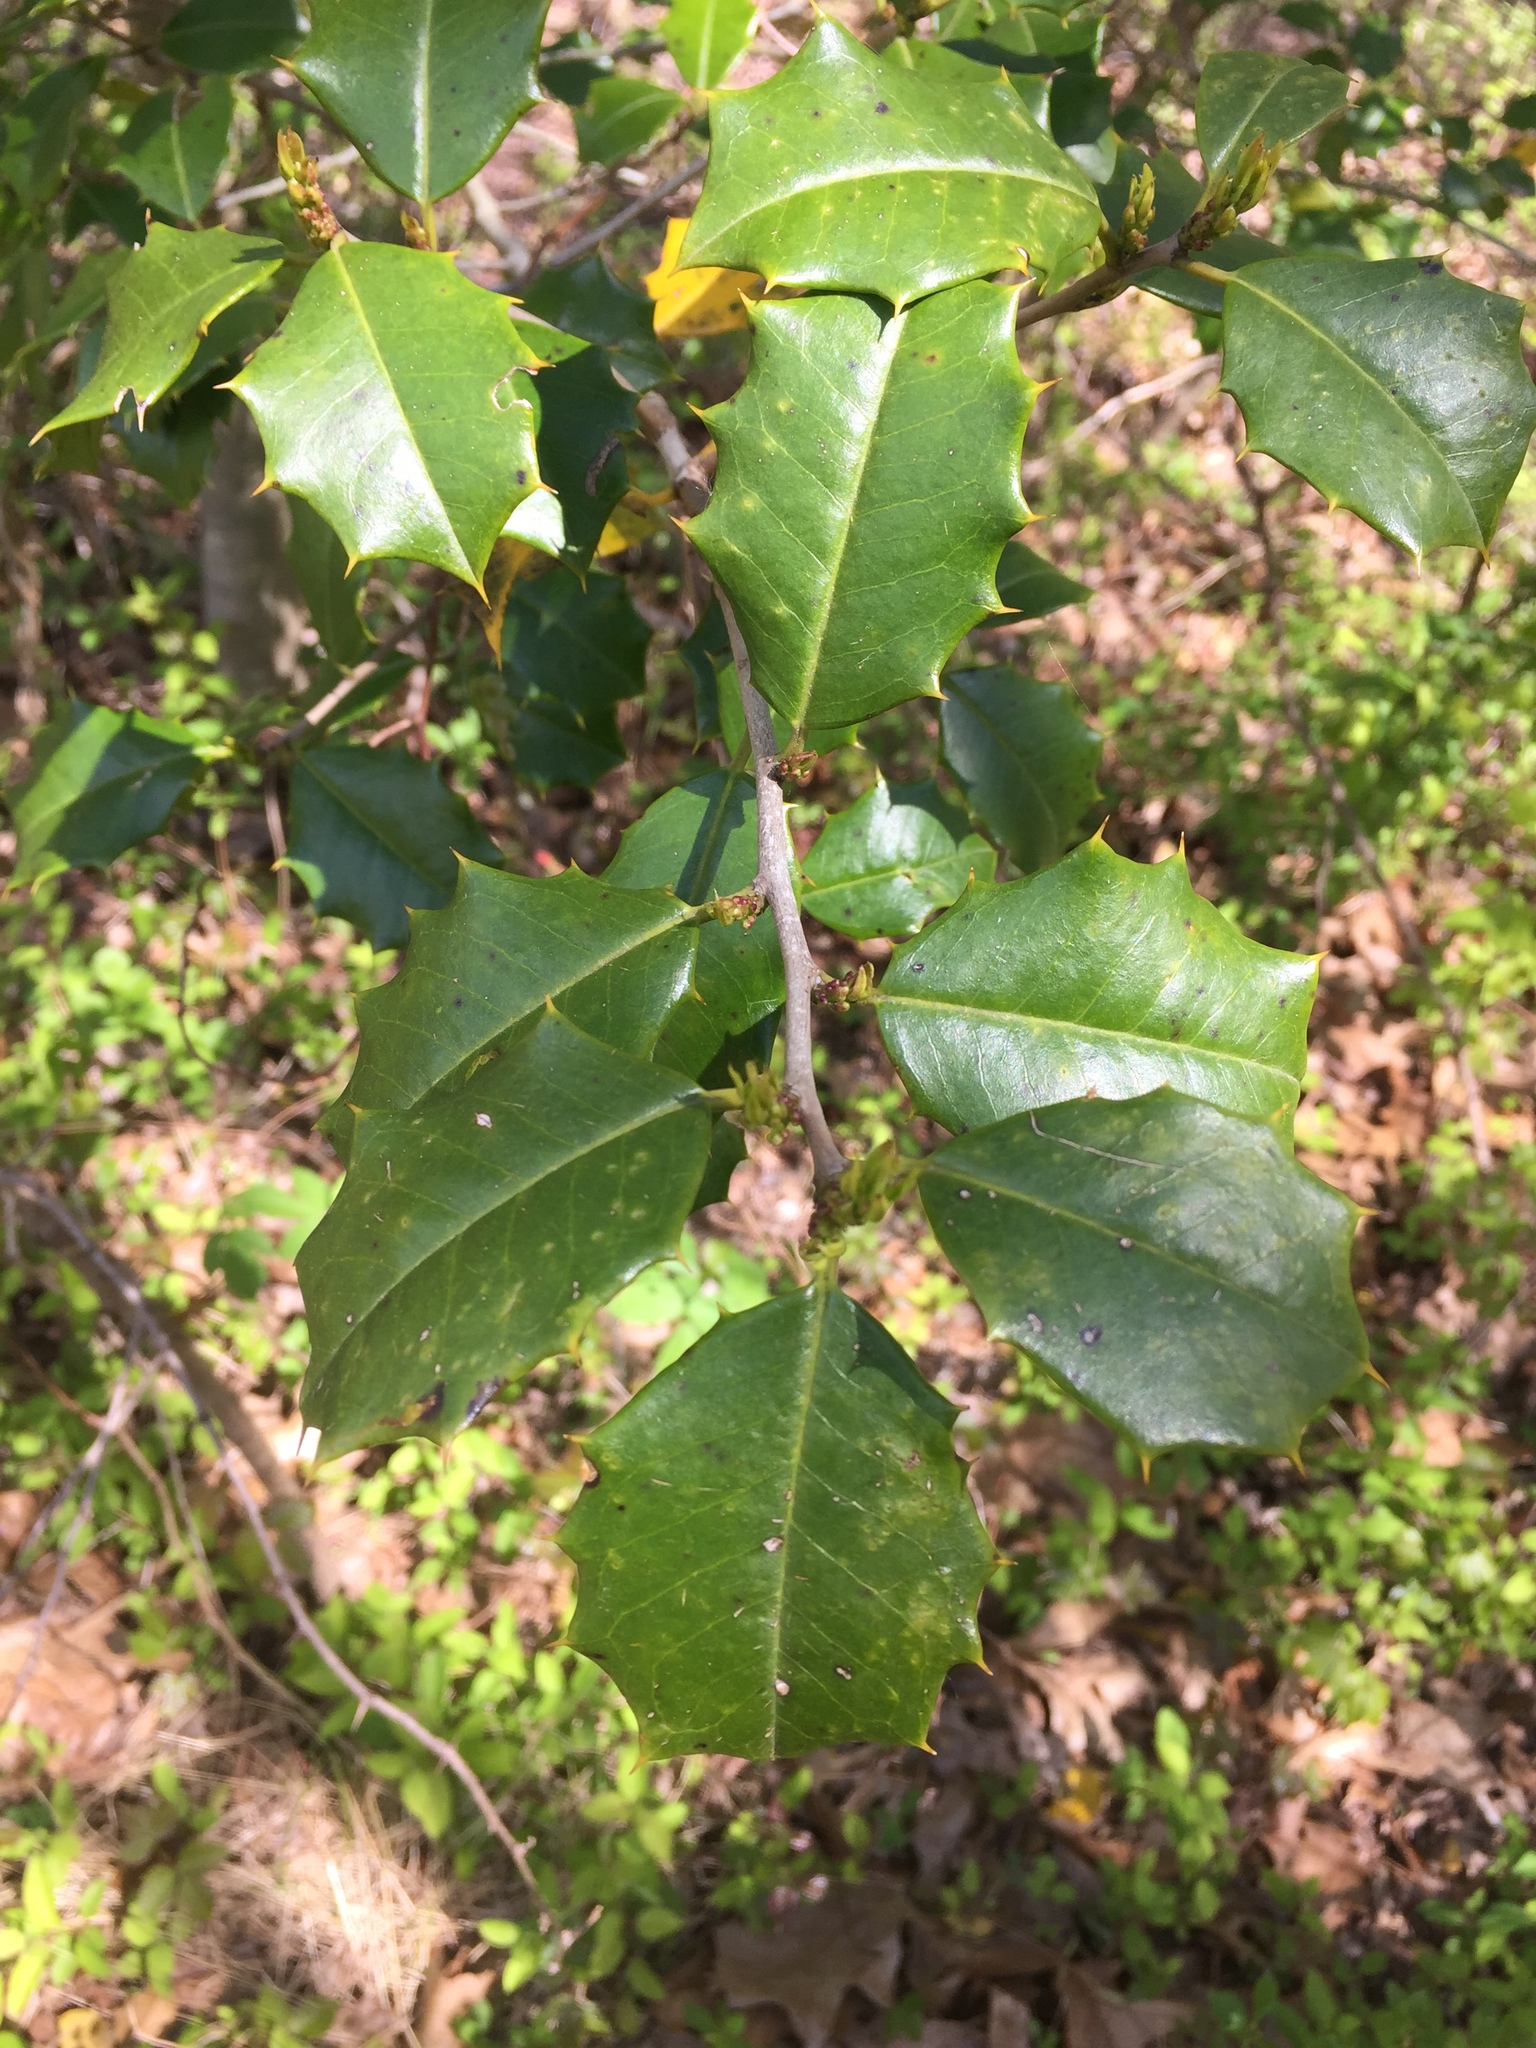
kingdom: Plantae
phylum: Tracheophyta
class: Magnoliopsida
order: Aquifoliales
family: Aquifoliaceae
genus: Ilex
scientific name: Ilex opaca
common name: American holly
